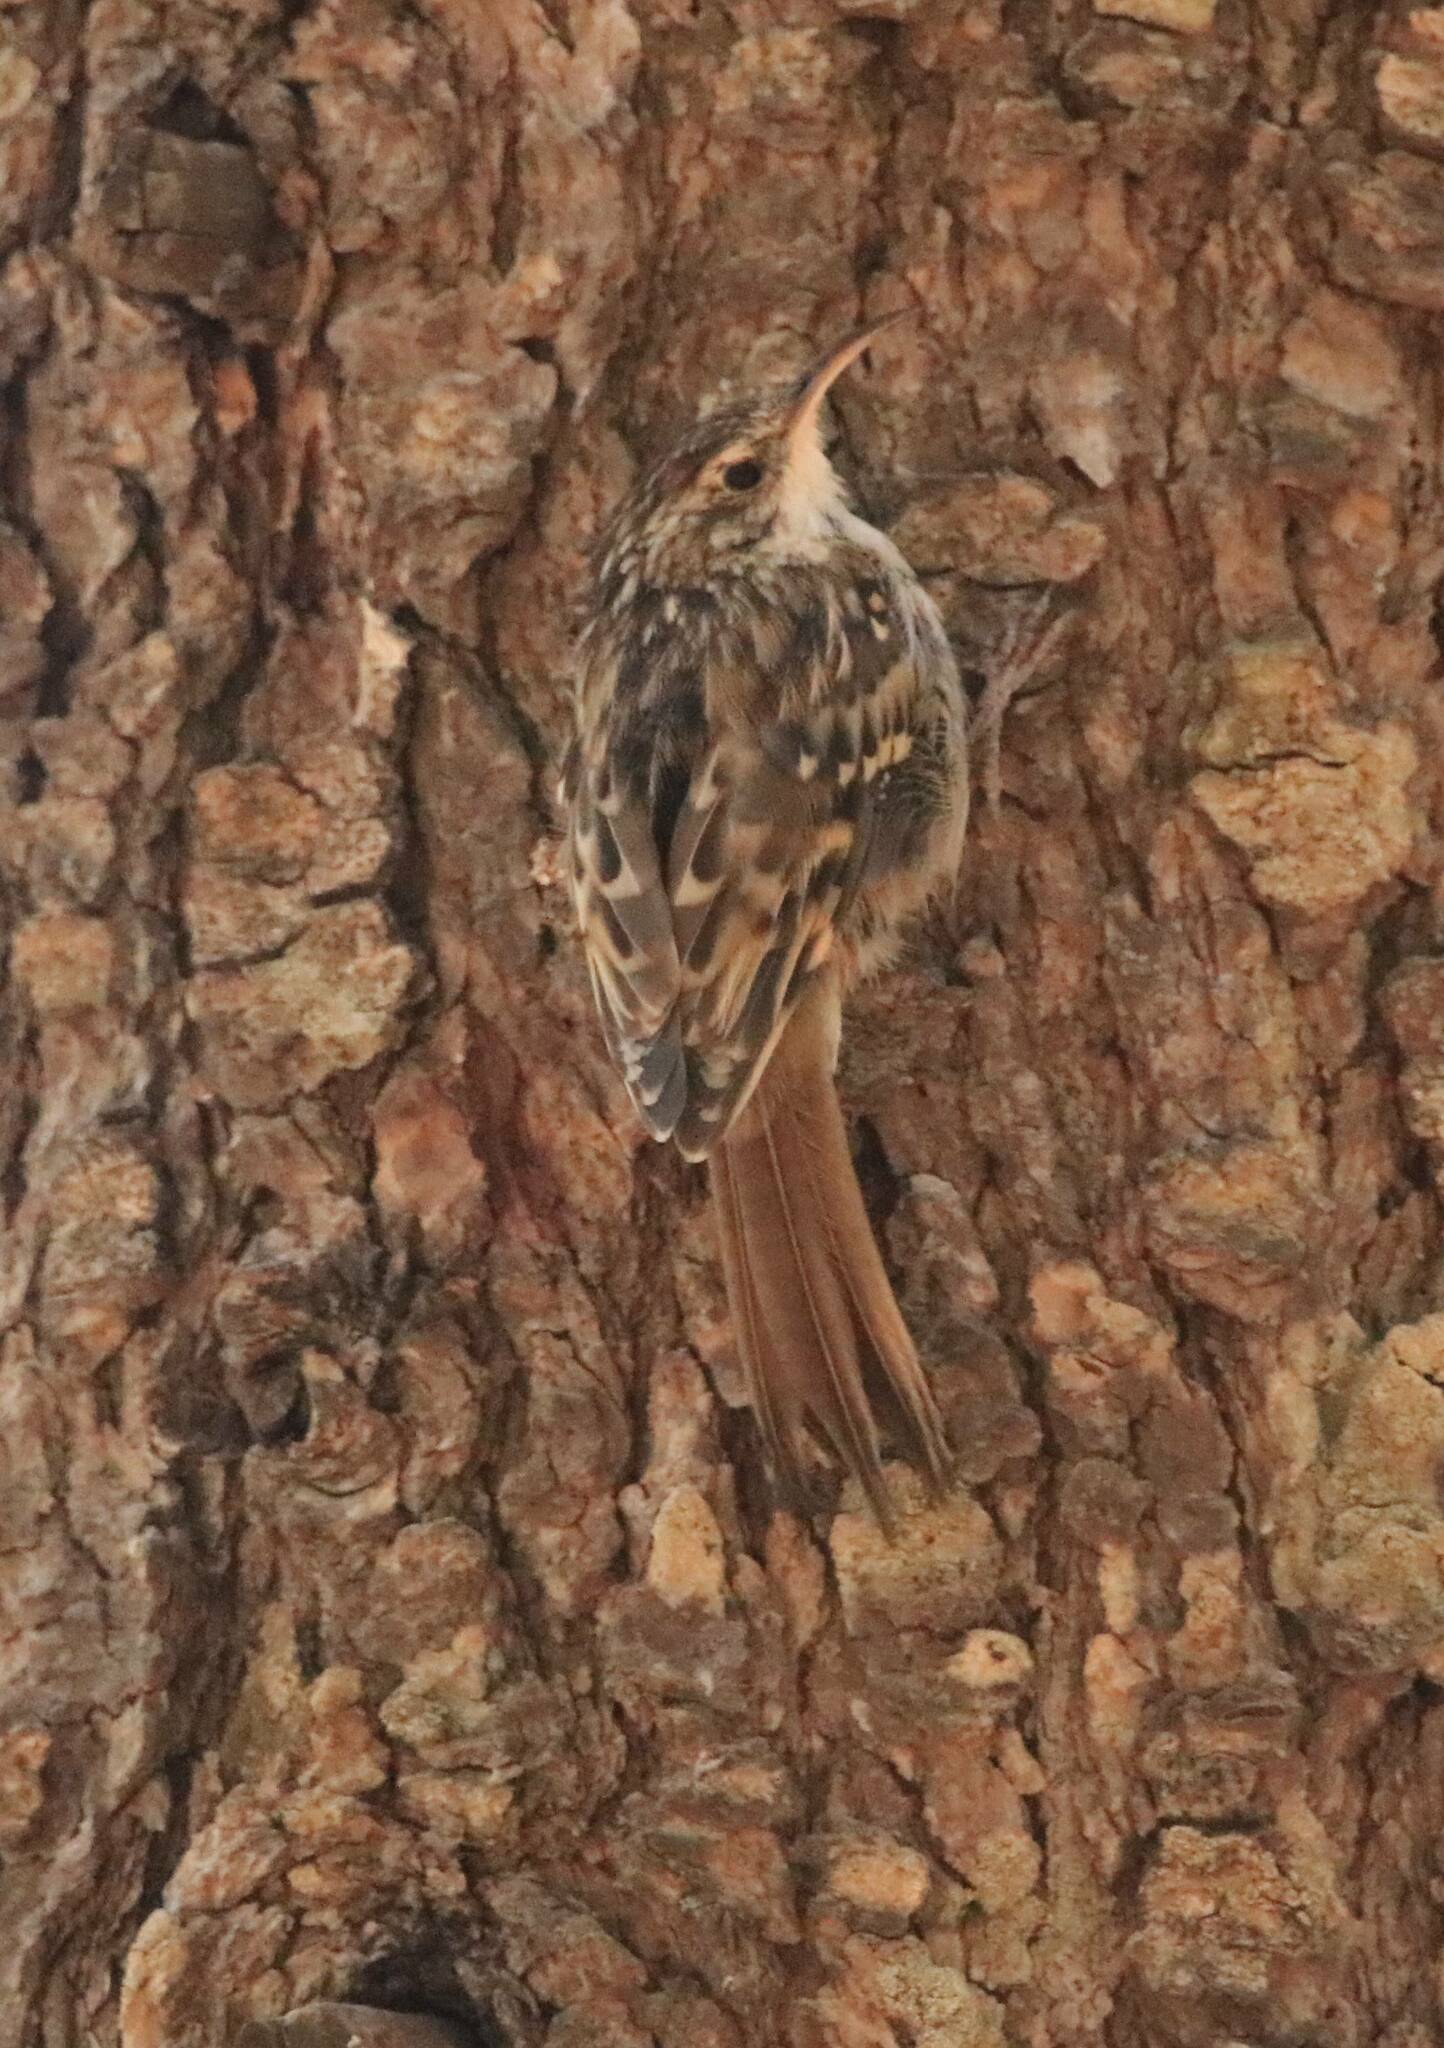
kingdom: Animalia
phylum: Chordata
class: Aves
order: Passeriformes
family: Certhiidae
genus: Certhia
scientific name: Certhia brachydactyla
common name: Short-toed treecreeper
